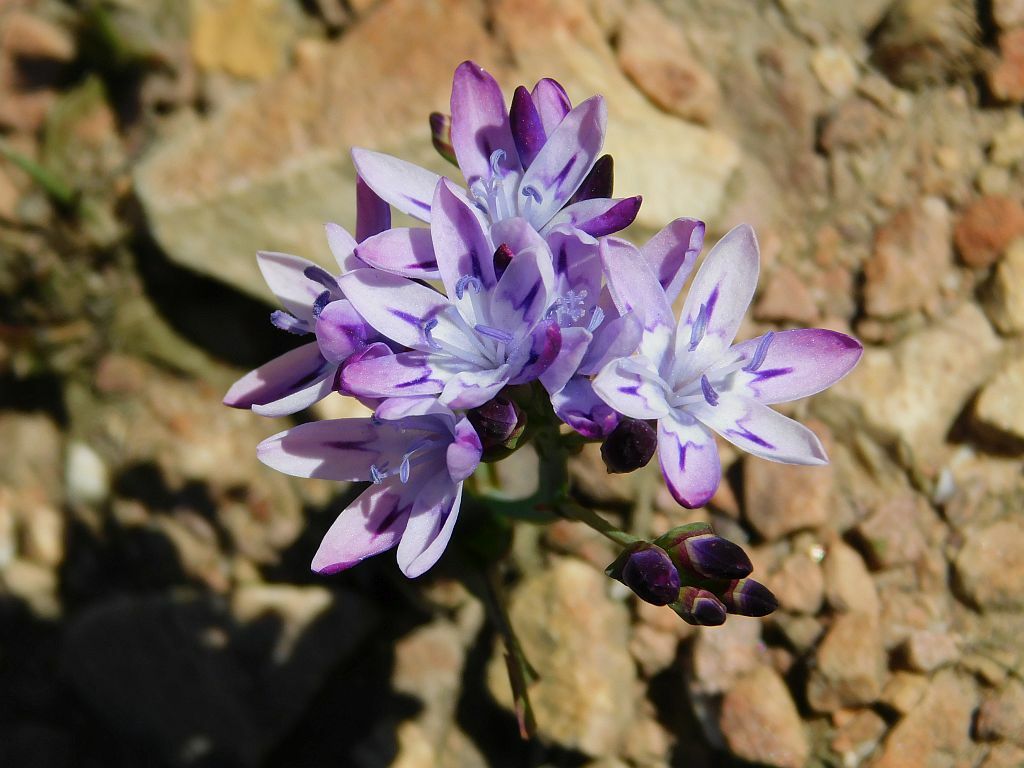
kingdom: Plantae
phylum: Tracheophyta
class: Liliopsida
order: Asparagales
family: Iridaceae
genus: Codonorhiza
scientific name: Codonorhiza corymbosa
